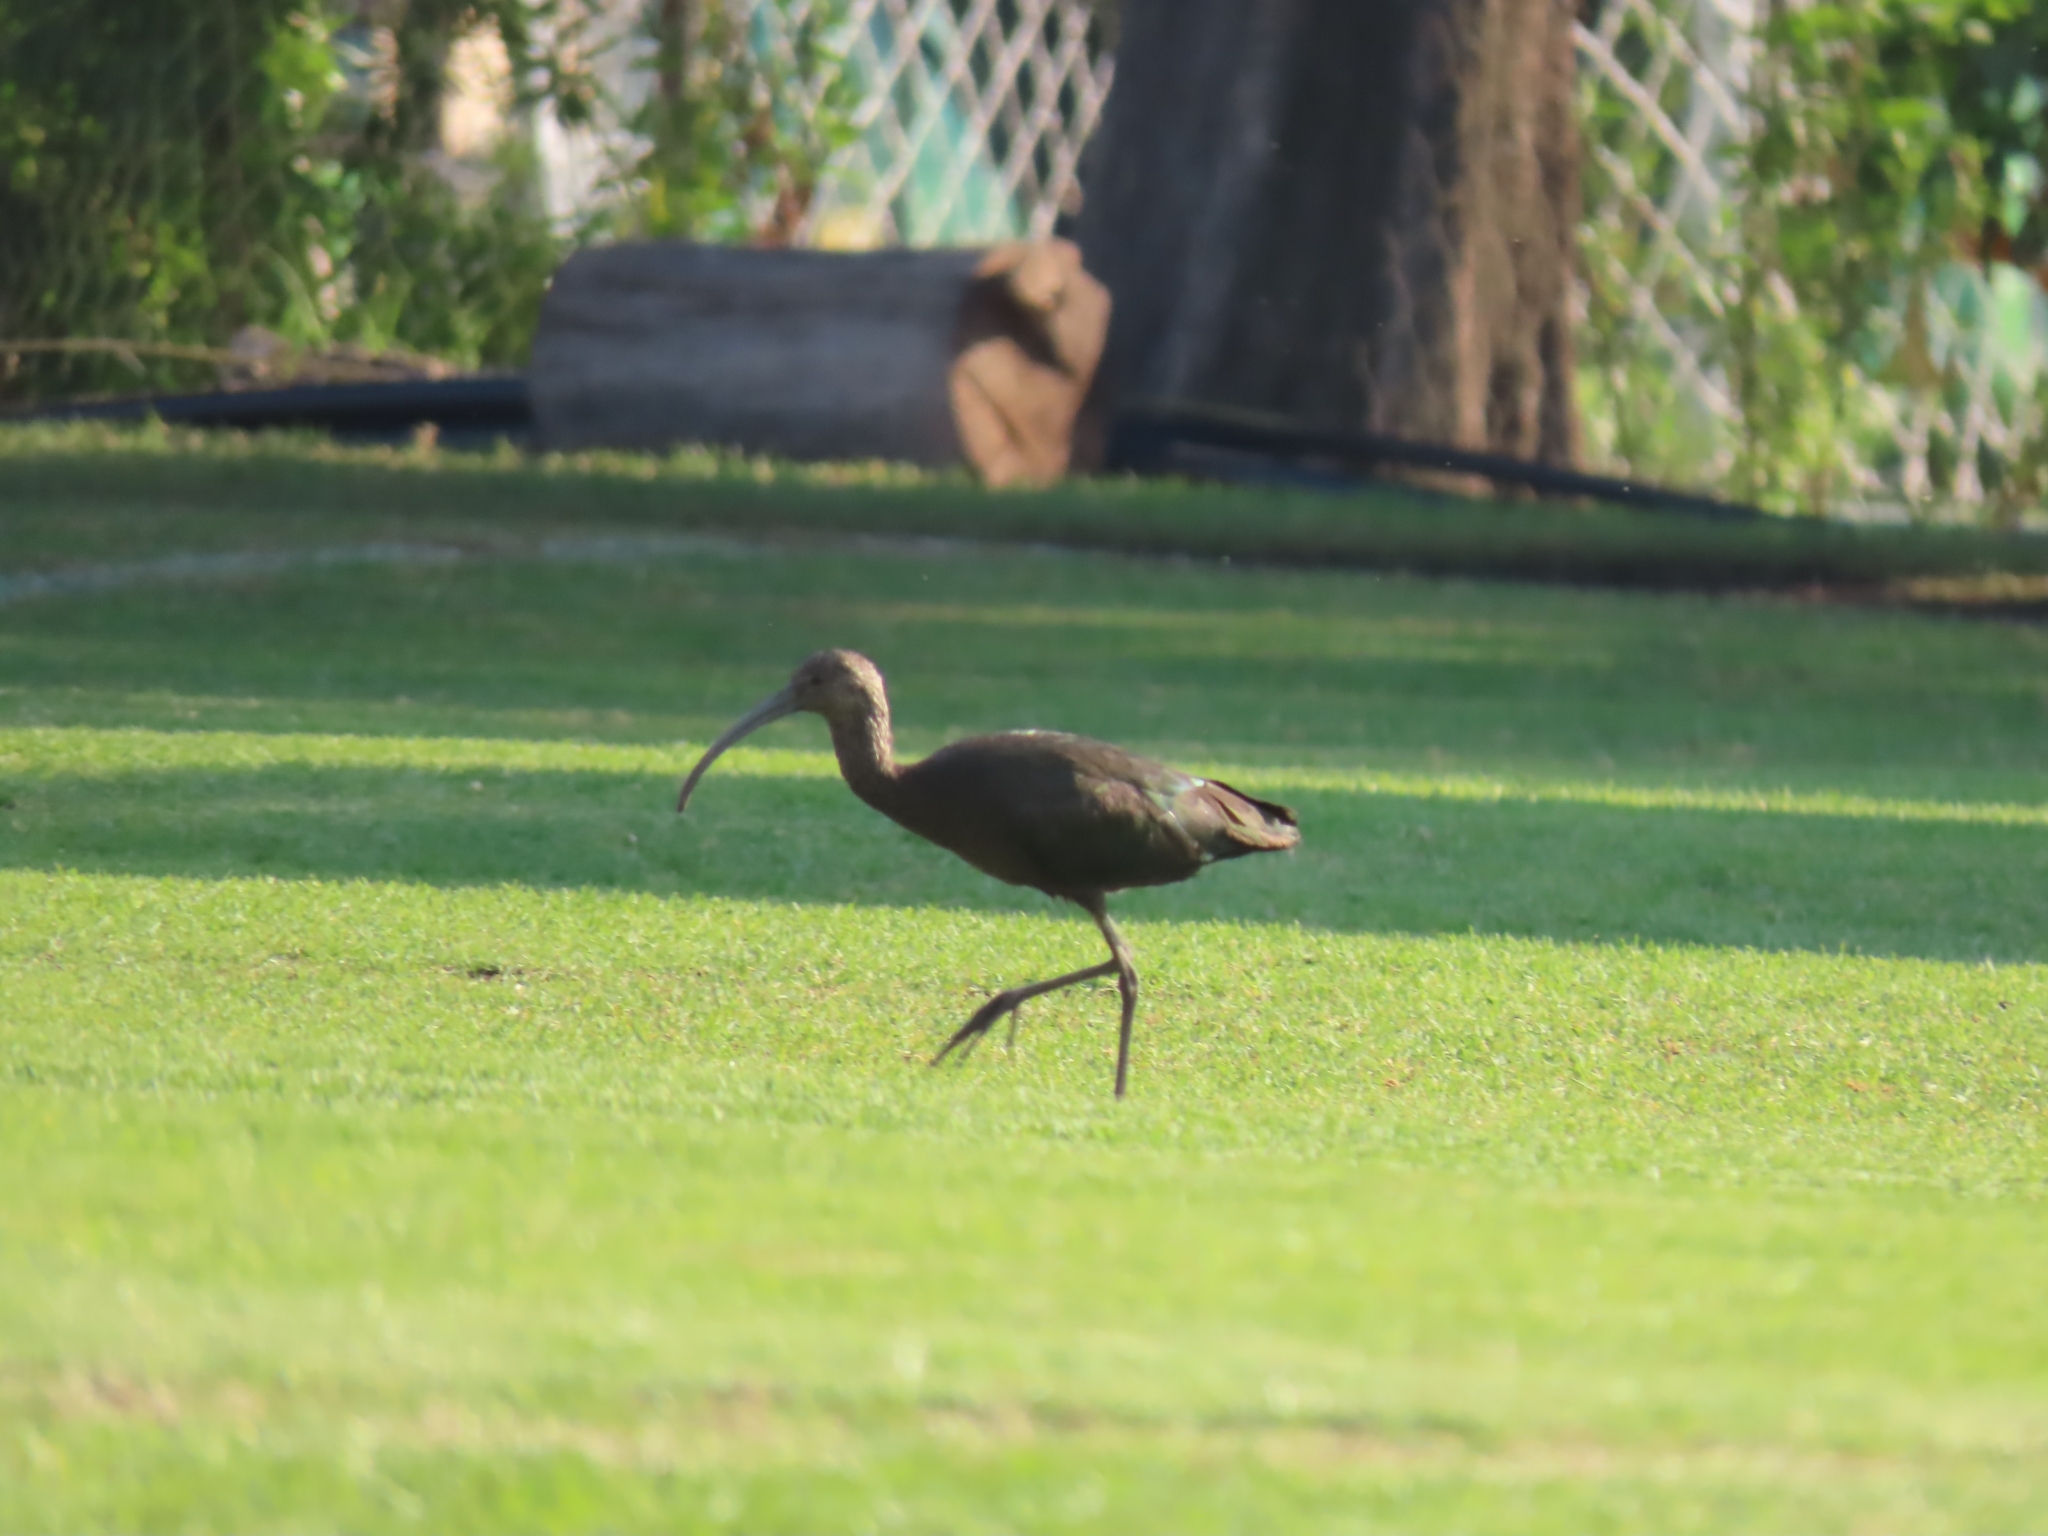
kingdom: Animalia
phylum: Chordata
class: Aves
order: Pelecaniformes
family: Threskiornithidae
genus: Plegadis
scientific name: Plegadis chihi
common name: White-faced ibis
